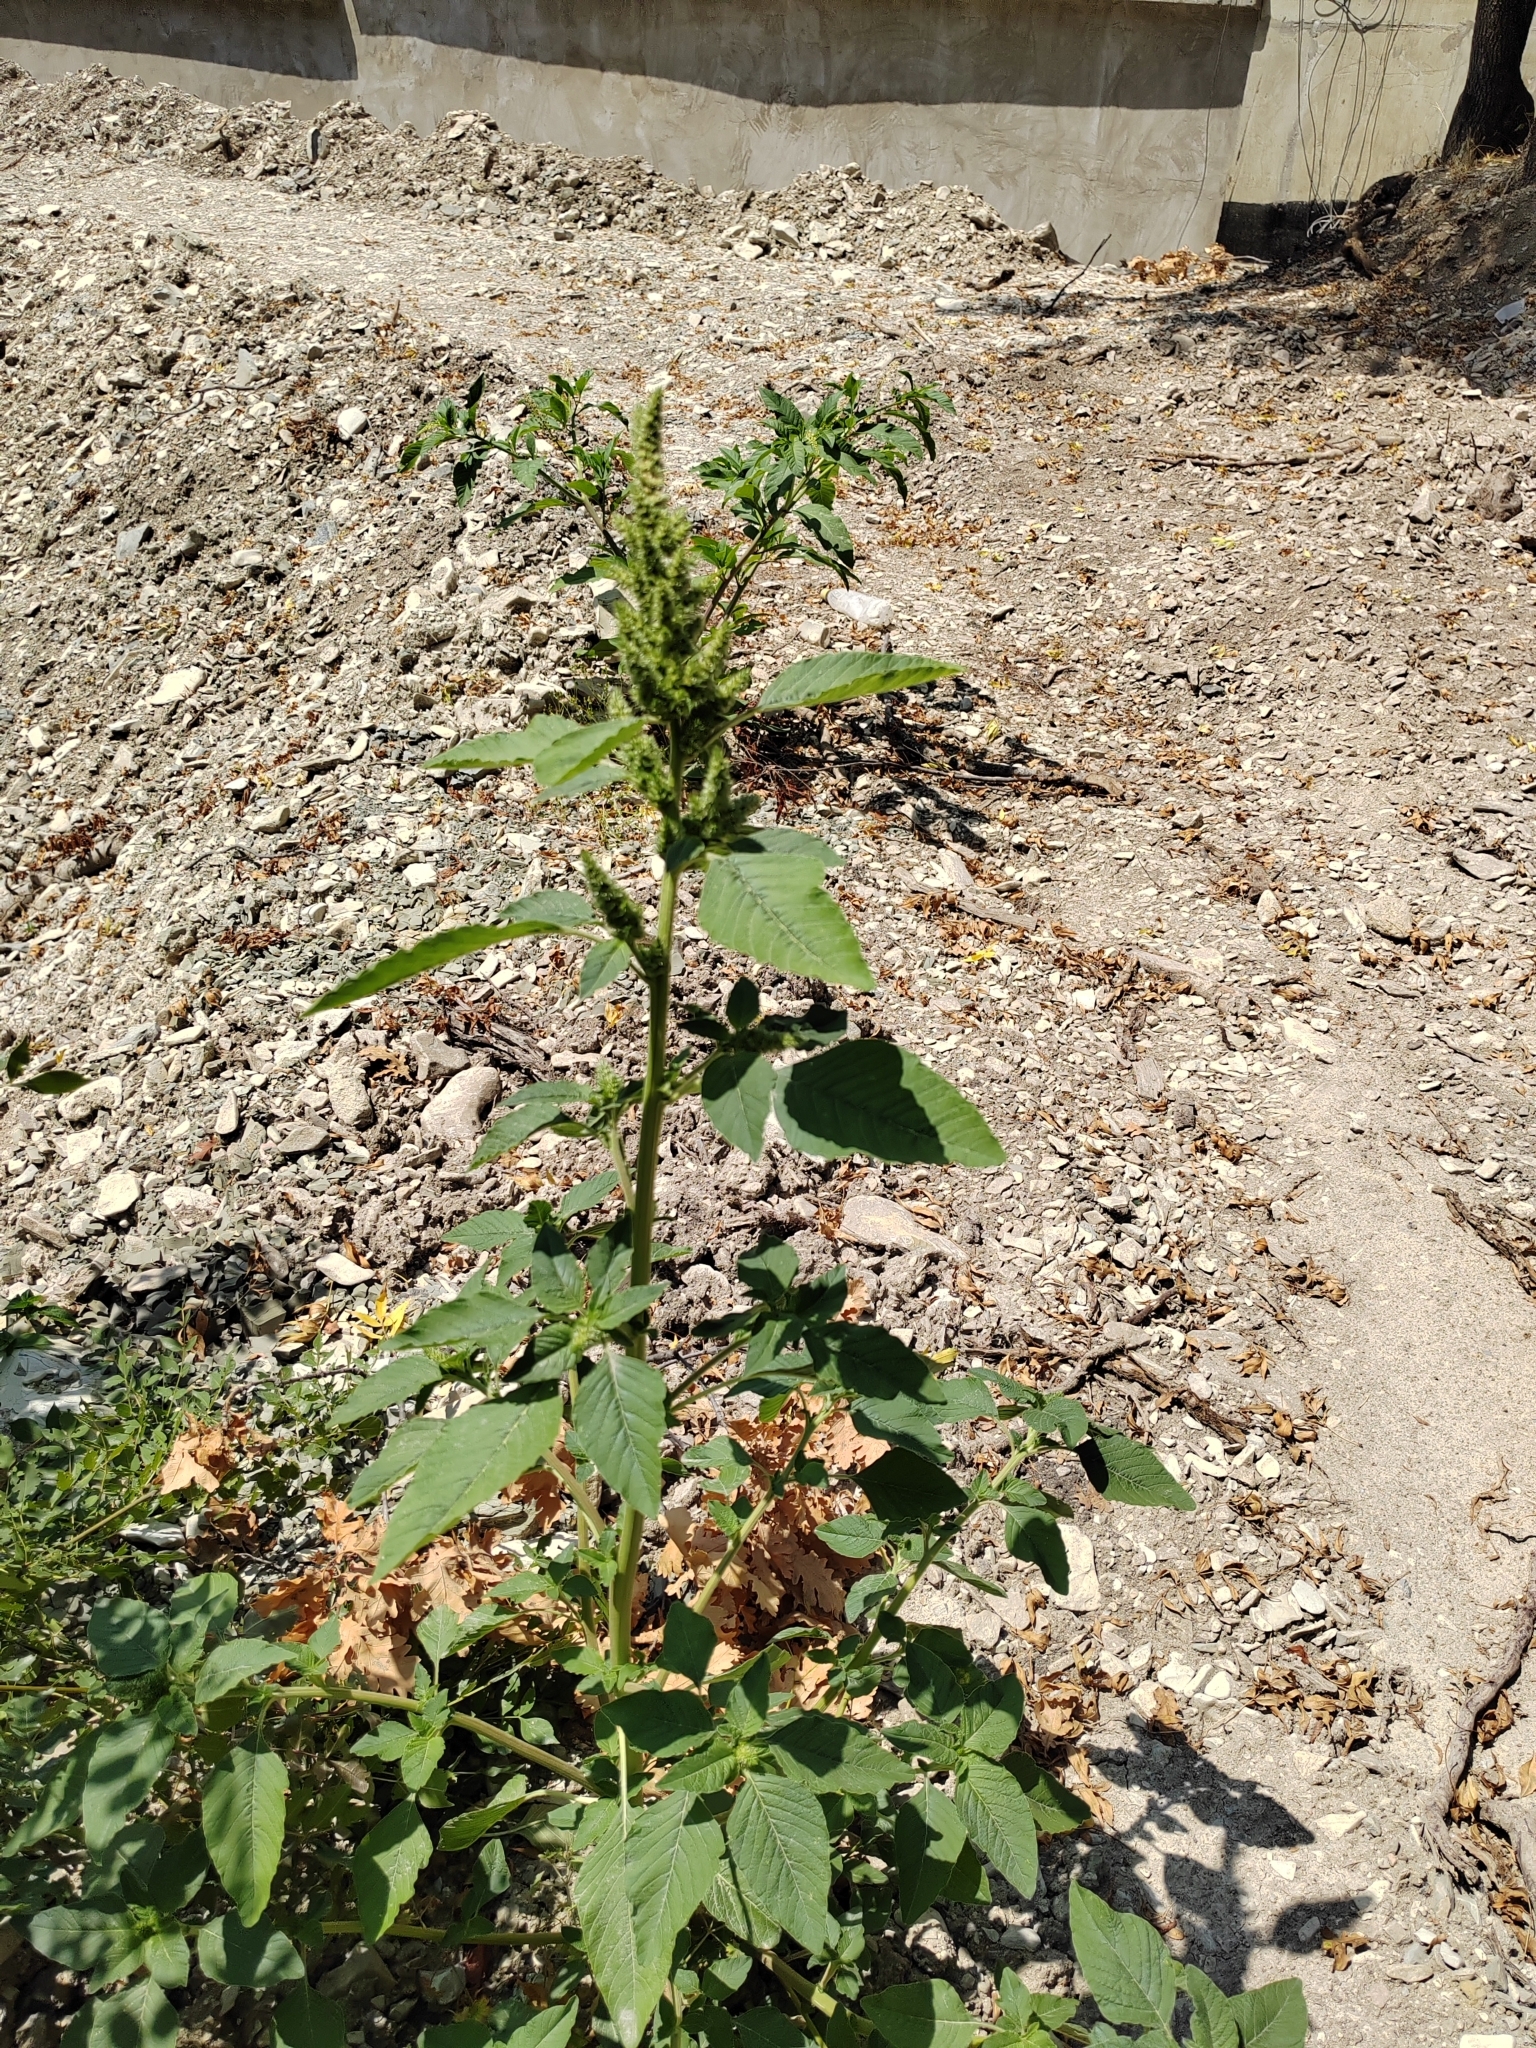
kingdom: Plantae
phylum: Tracheophyta
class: Magnoliopsida
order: Caryophyllales
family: Amaranthaceae
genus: Amaranthus
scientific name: Amaranthus retroflexus
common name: Redroot amaranth
